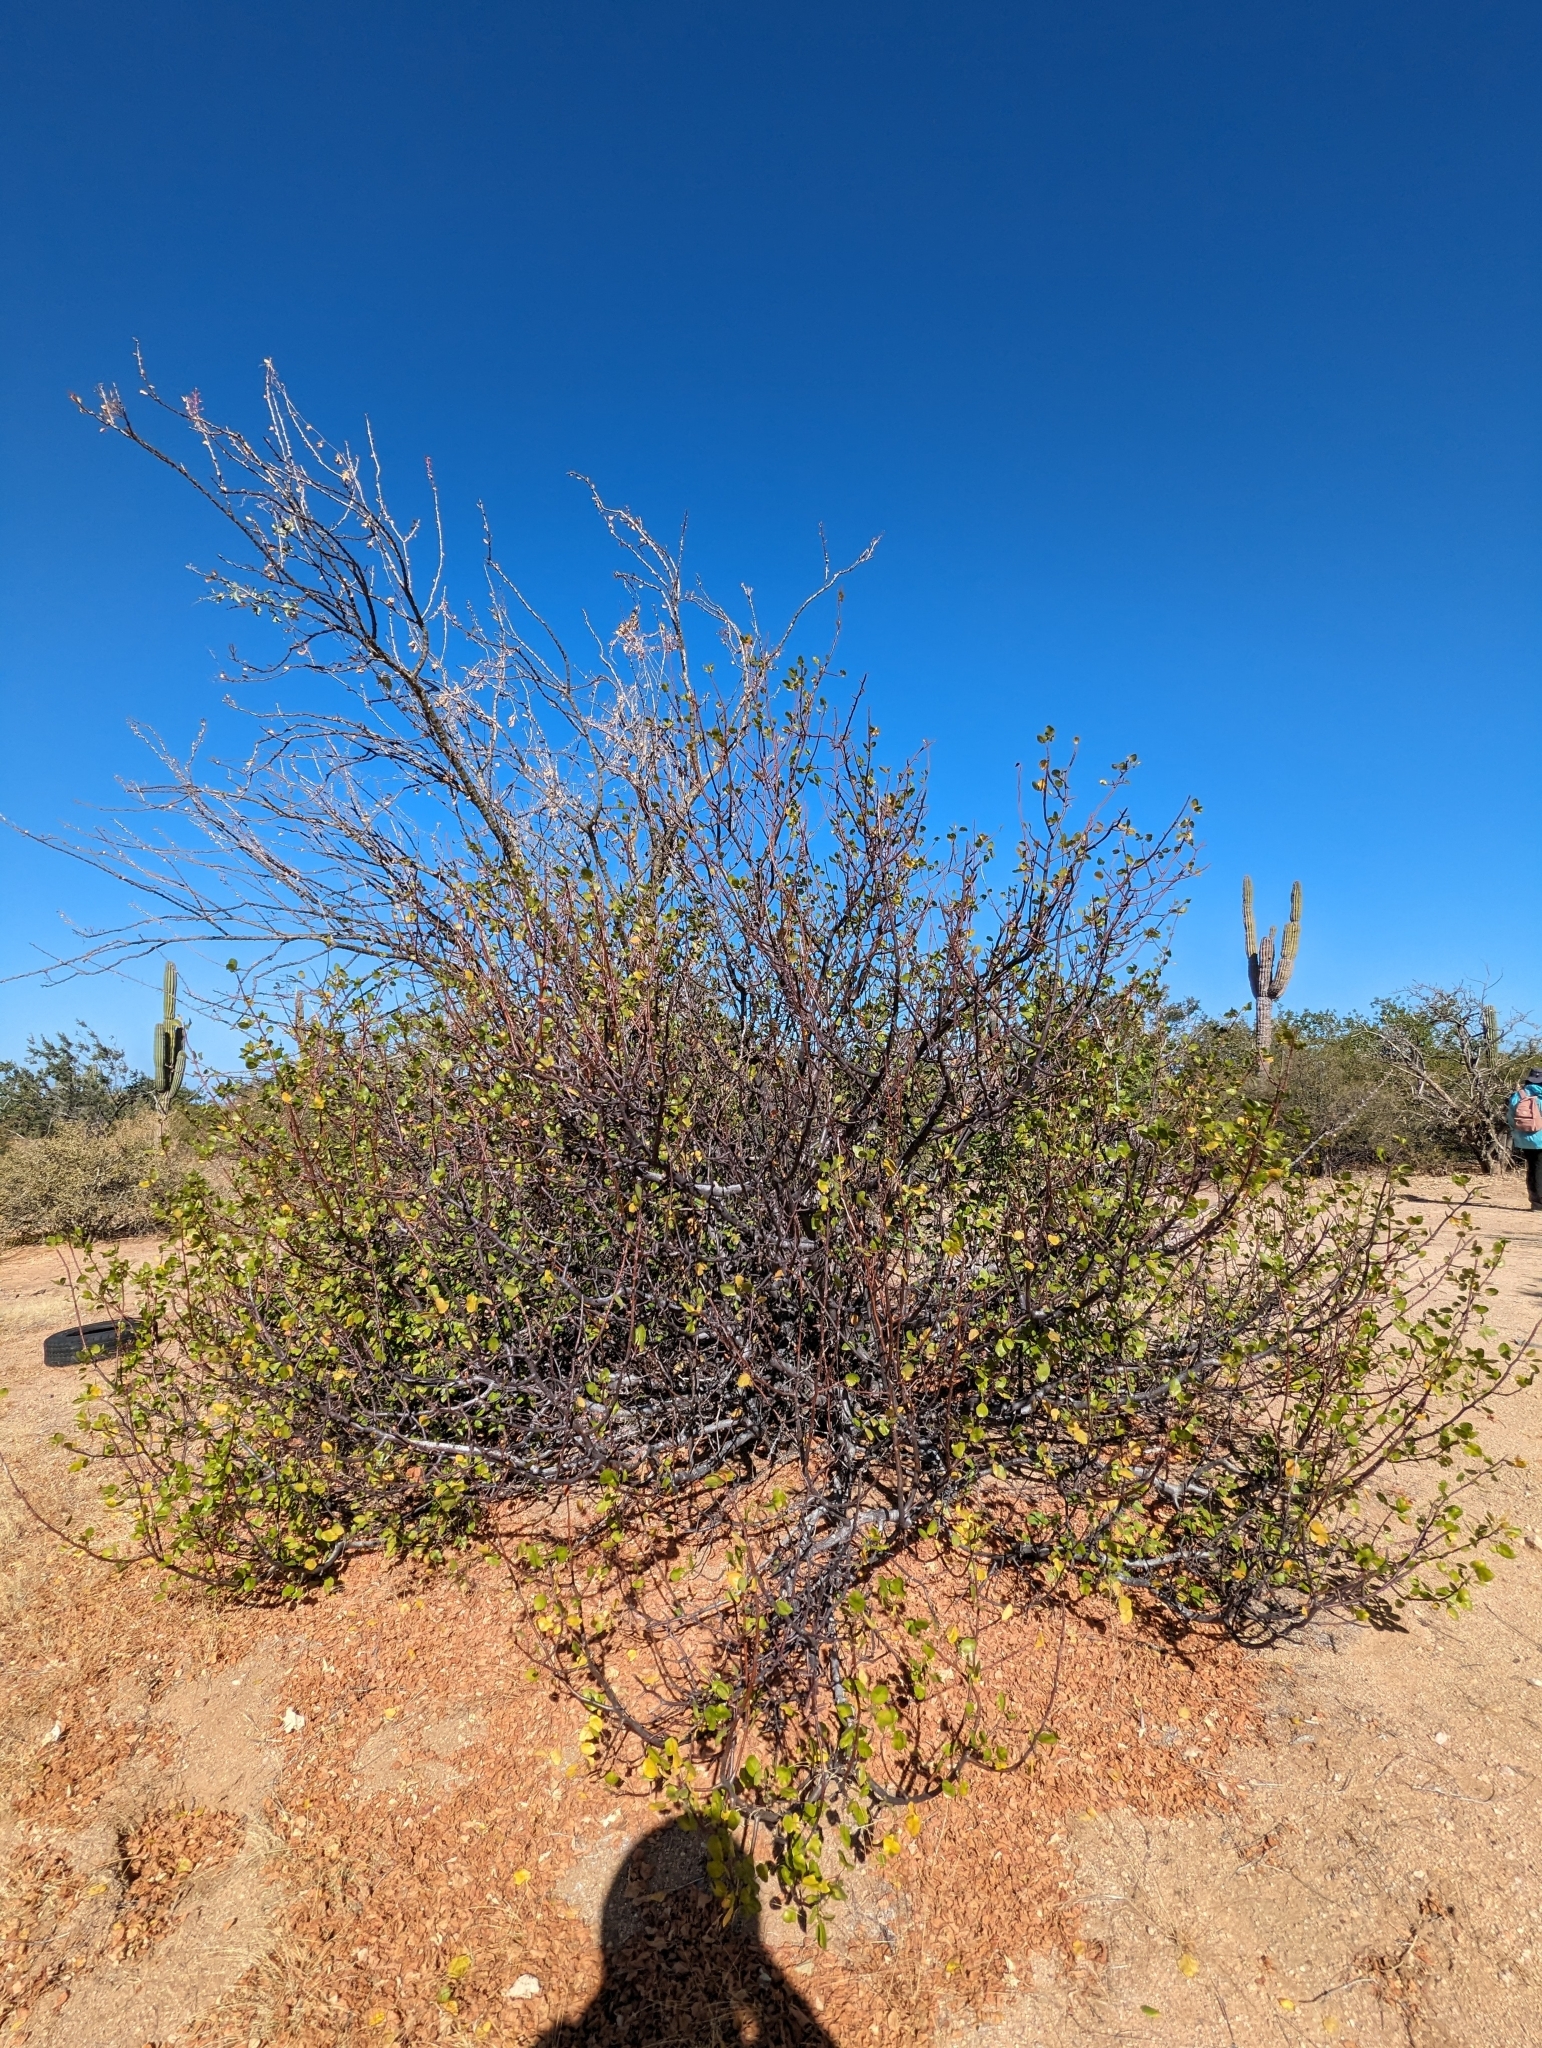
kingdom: Plantae
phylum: Tracheophyta
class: Magnoliopsida
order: Sapindales
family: Burseraceae
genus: Bursera
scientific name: Bursera epinnata
